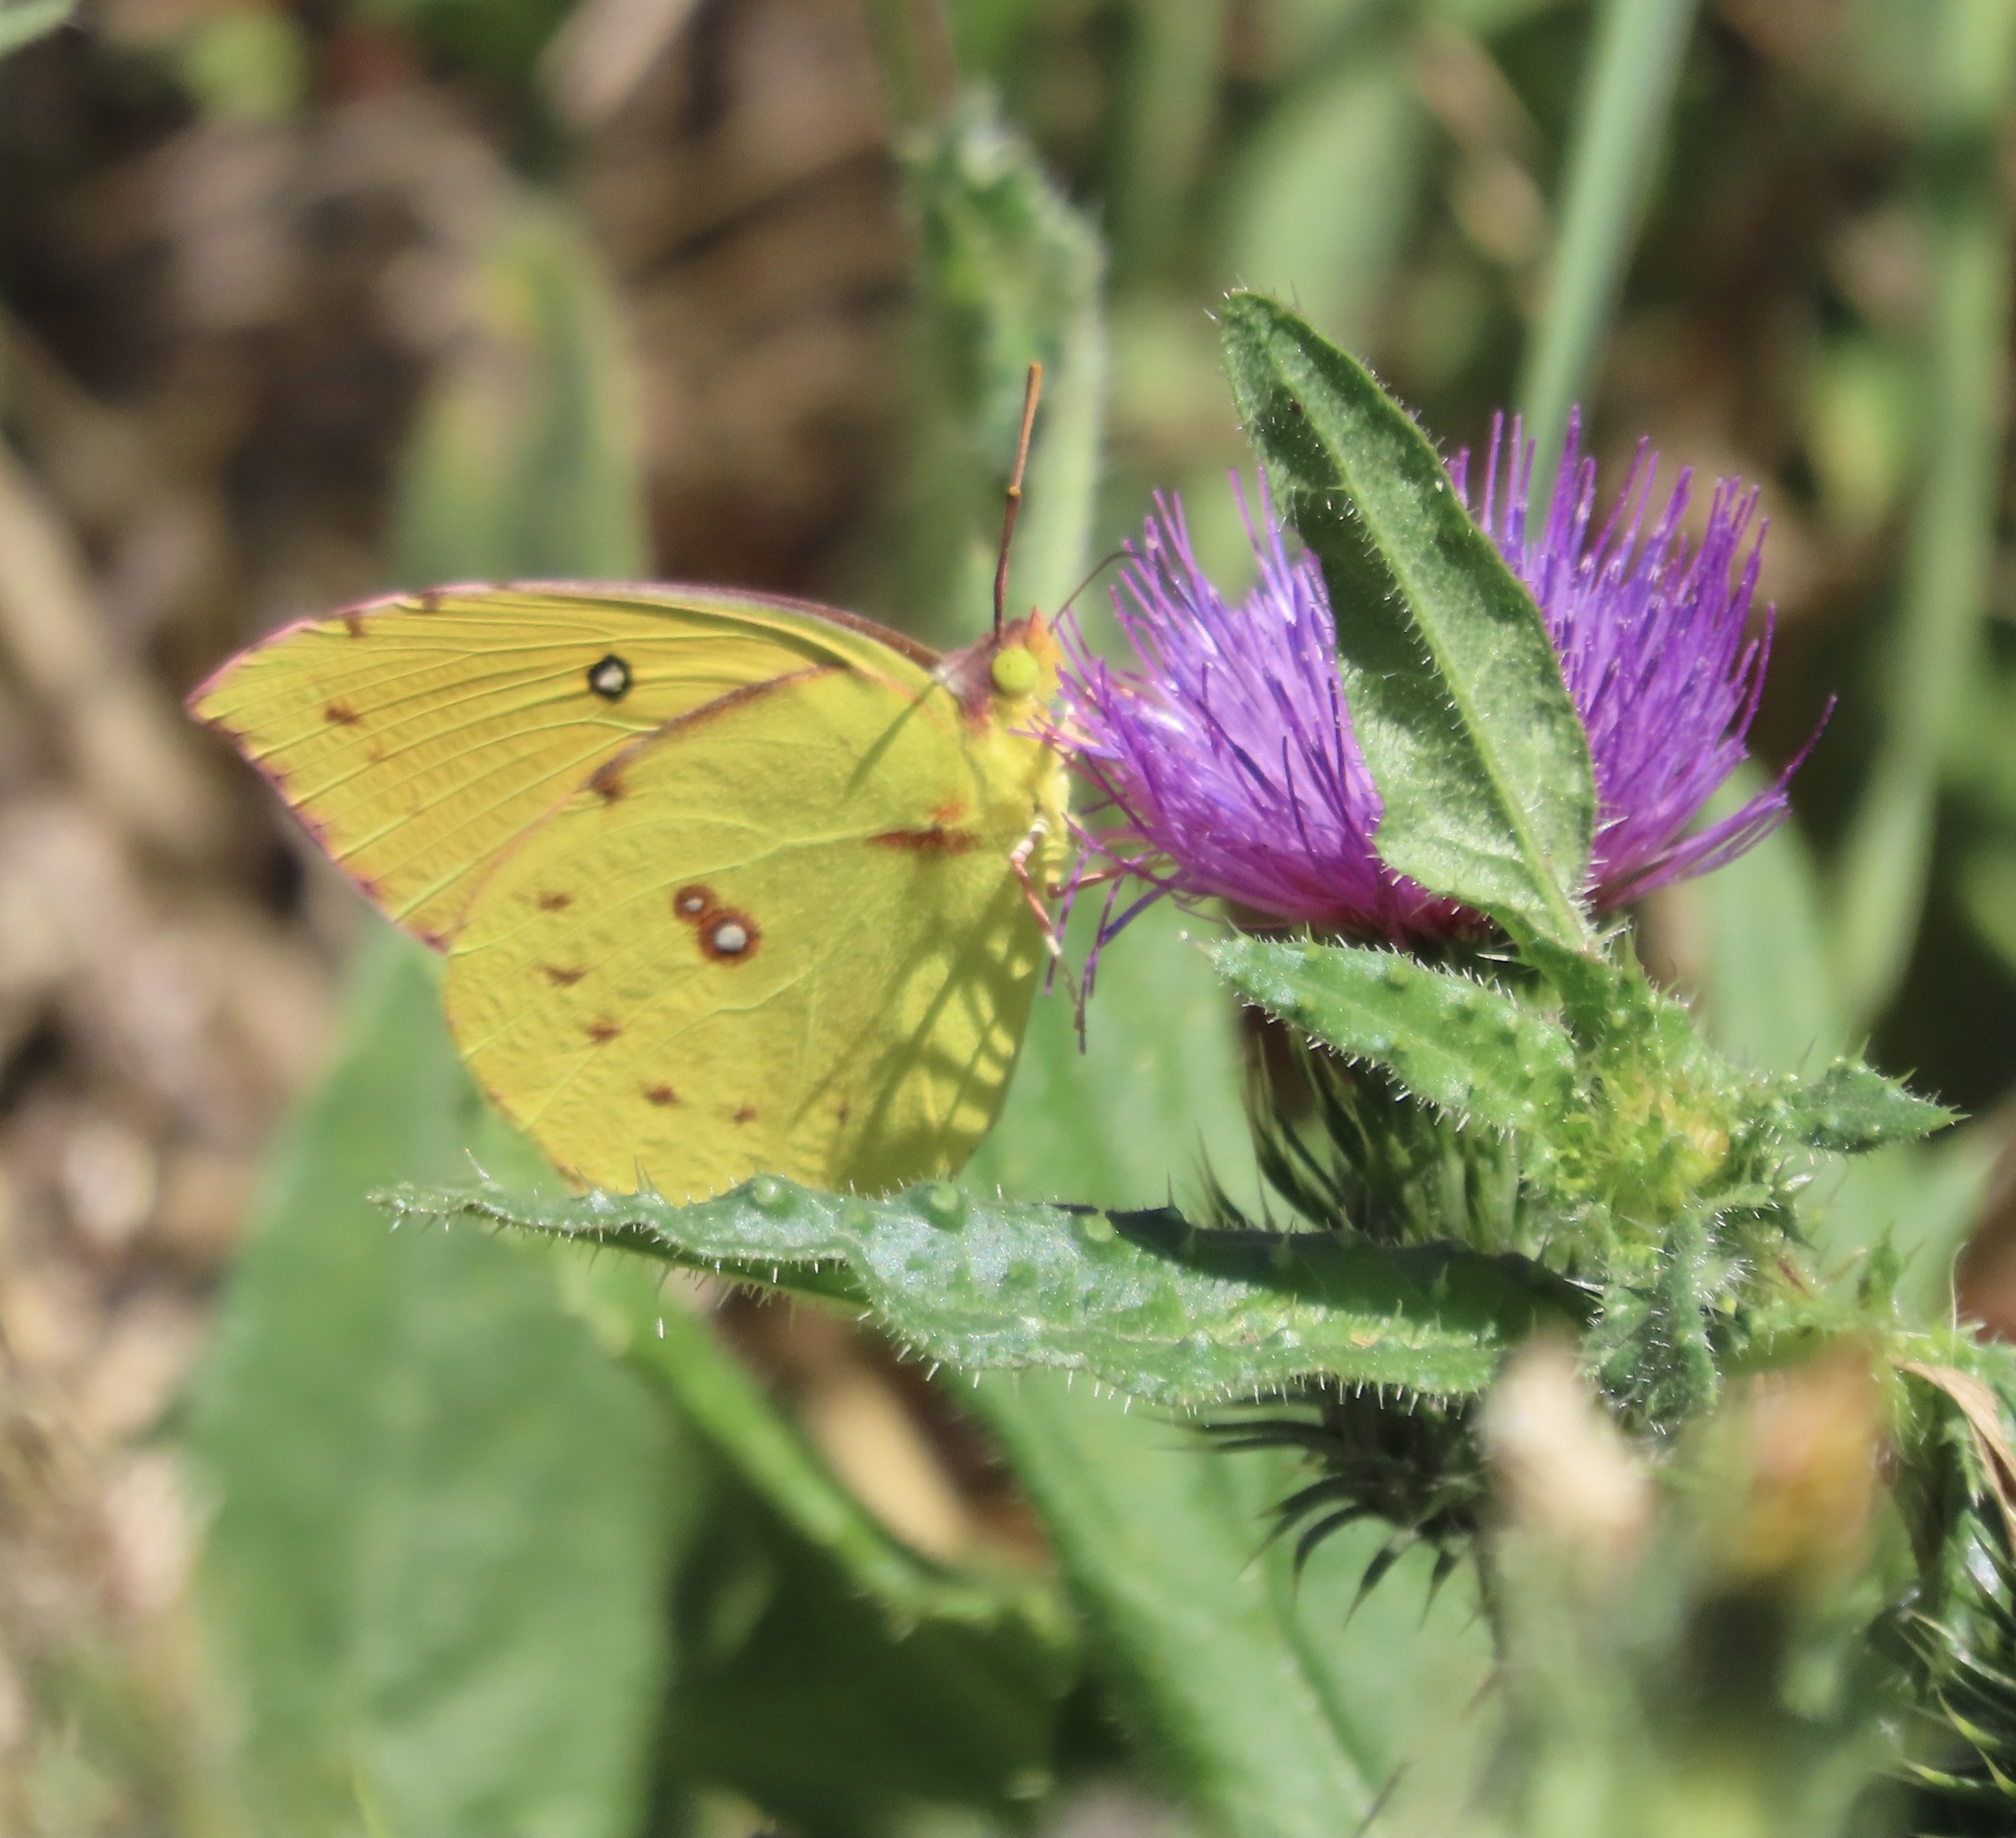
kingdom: Animalia
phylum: Arthropoda
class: Insecta
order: Lepidoptera
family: Pieridae
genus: Zerene
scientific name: Zerene eurydice
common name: California dogface
